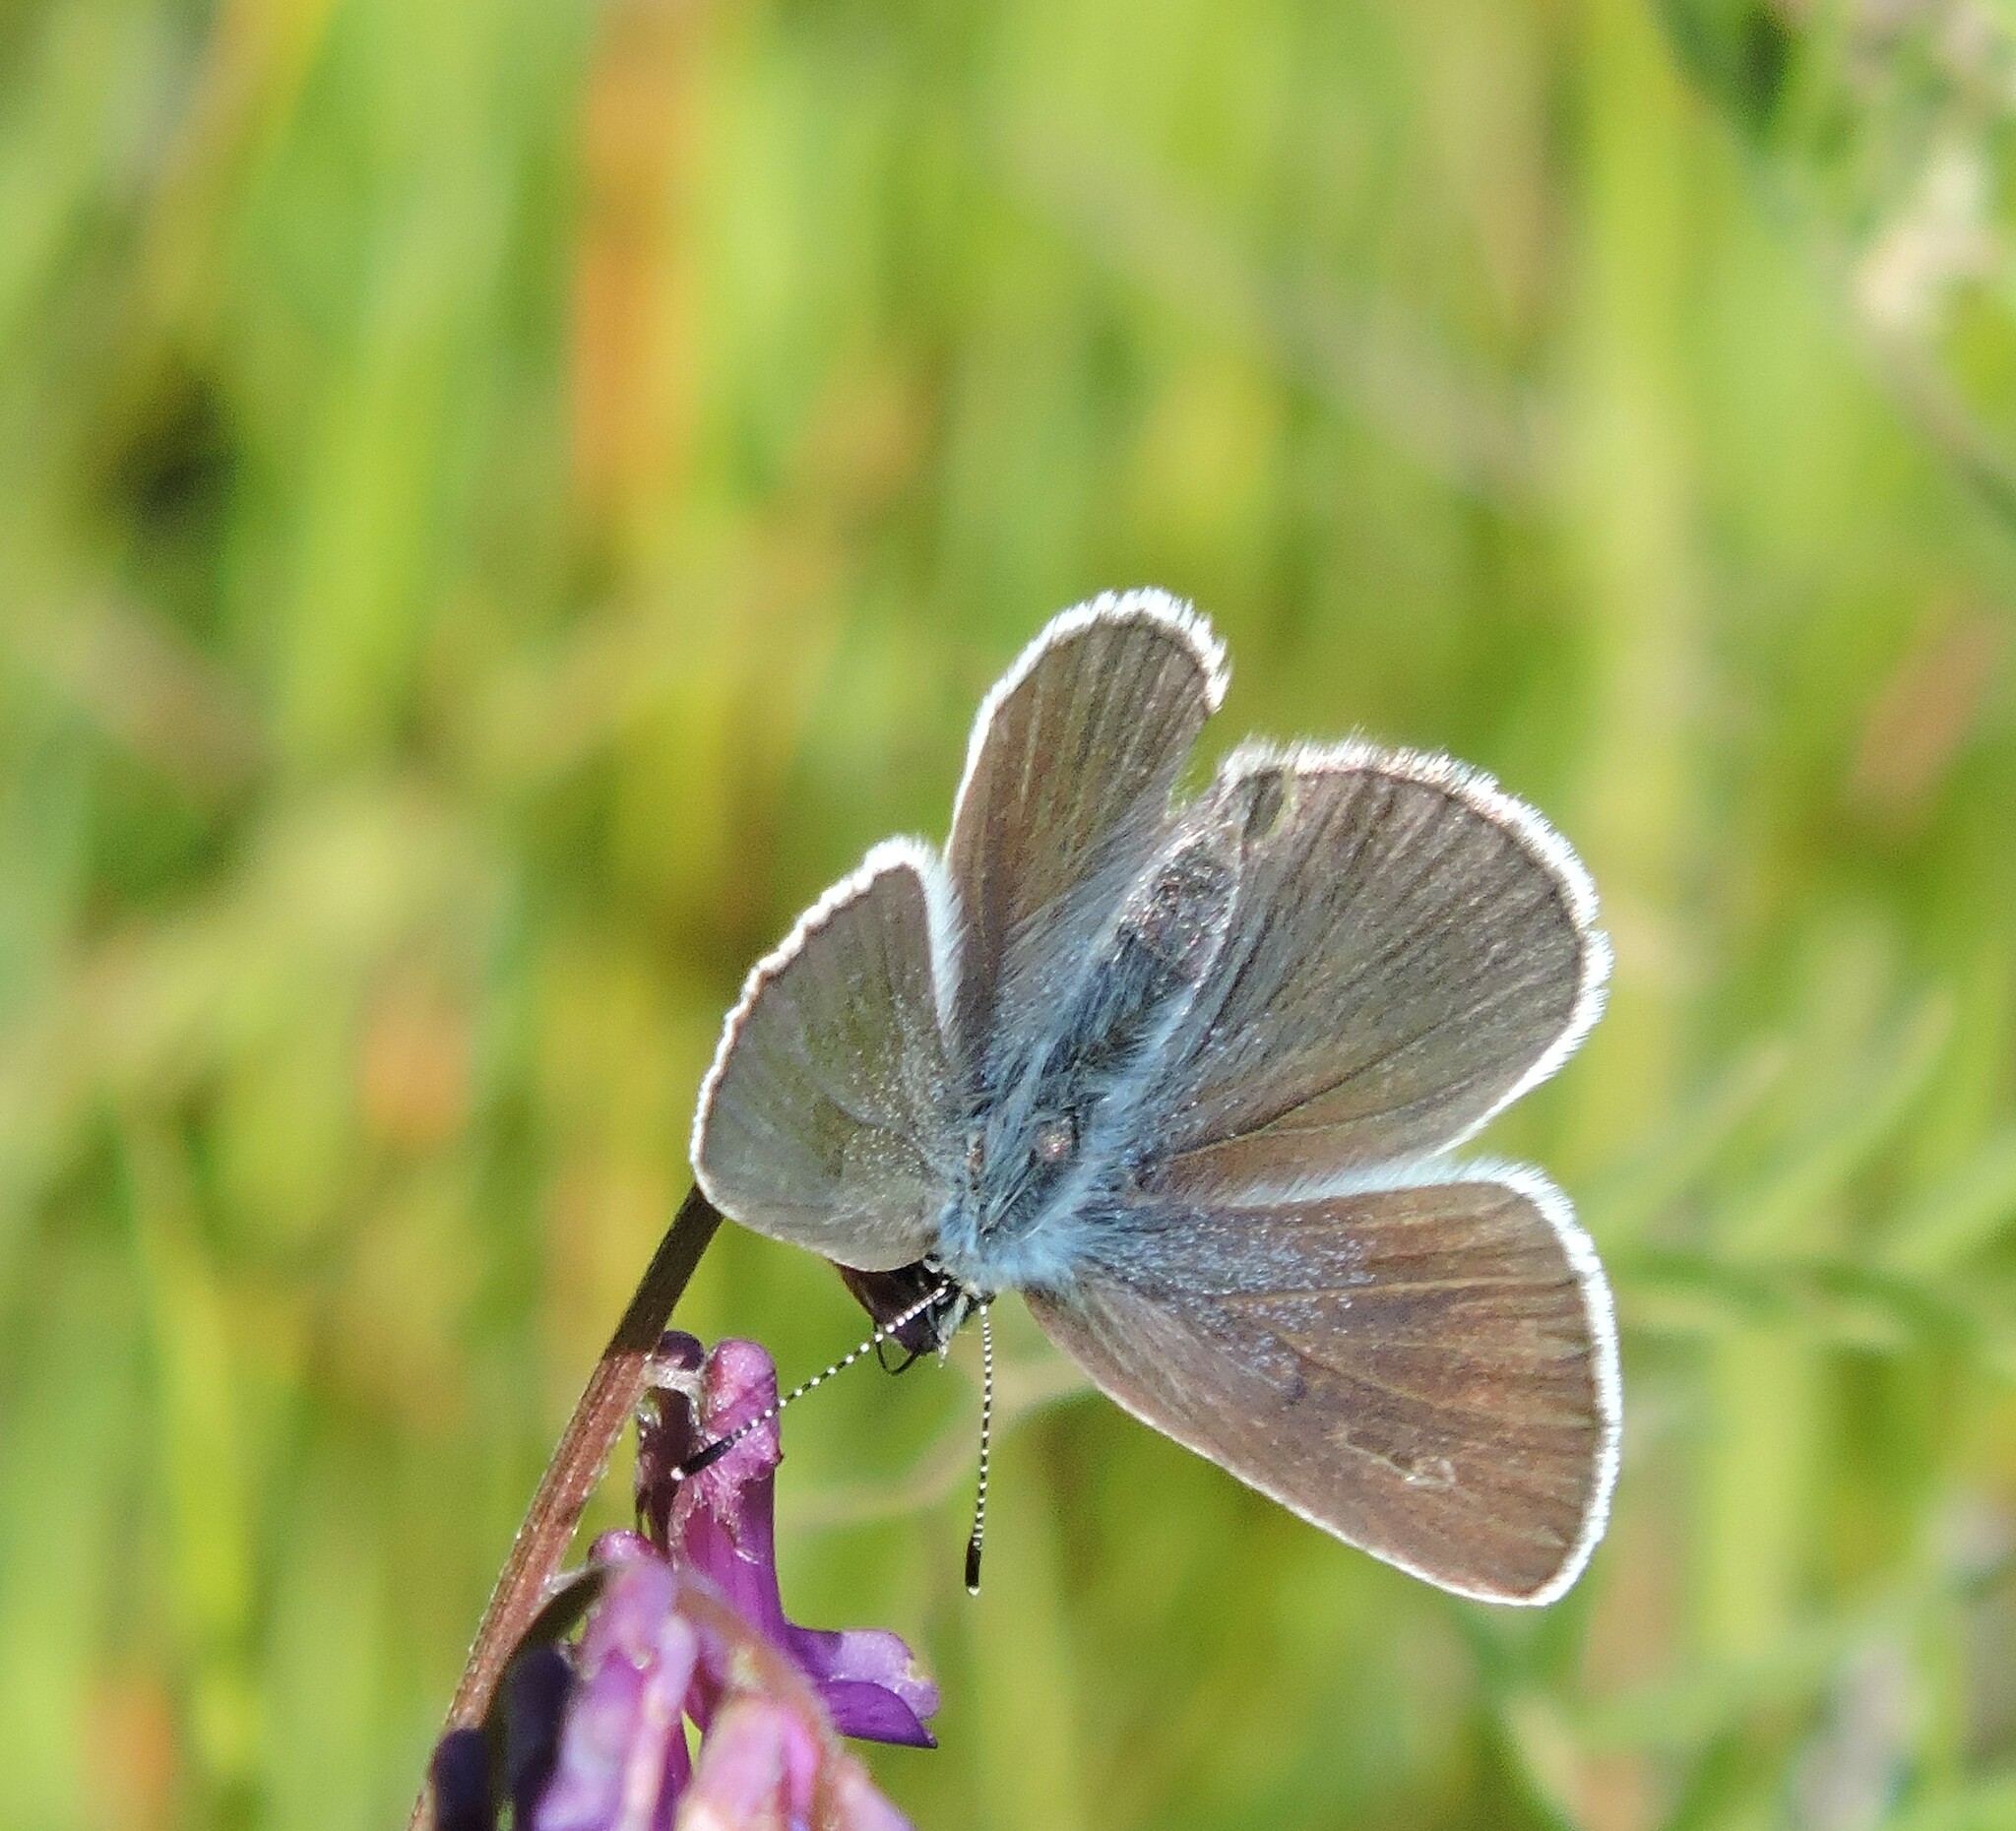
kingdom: Animalia
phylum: Arthropoda
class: Insecta
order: Lepidoptera
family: Lycaenidae
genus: Glaucopsyche
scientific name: Glaucopsyche lygdamus
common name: Silvery blue
